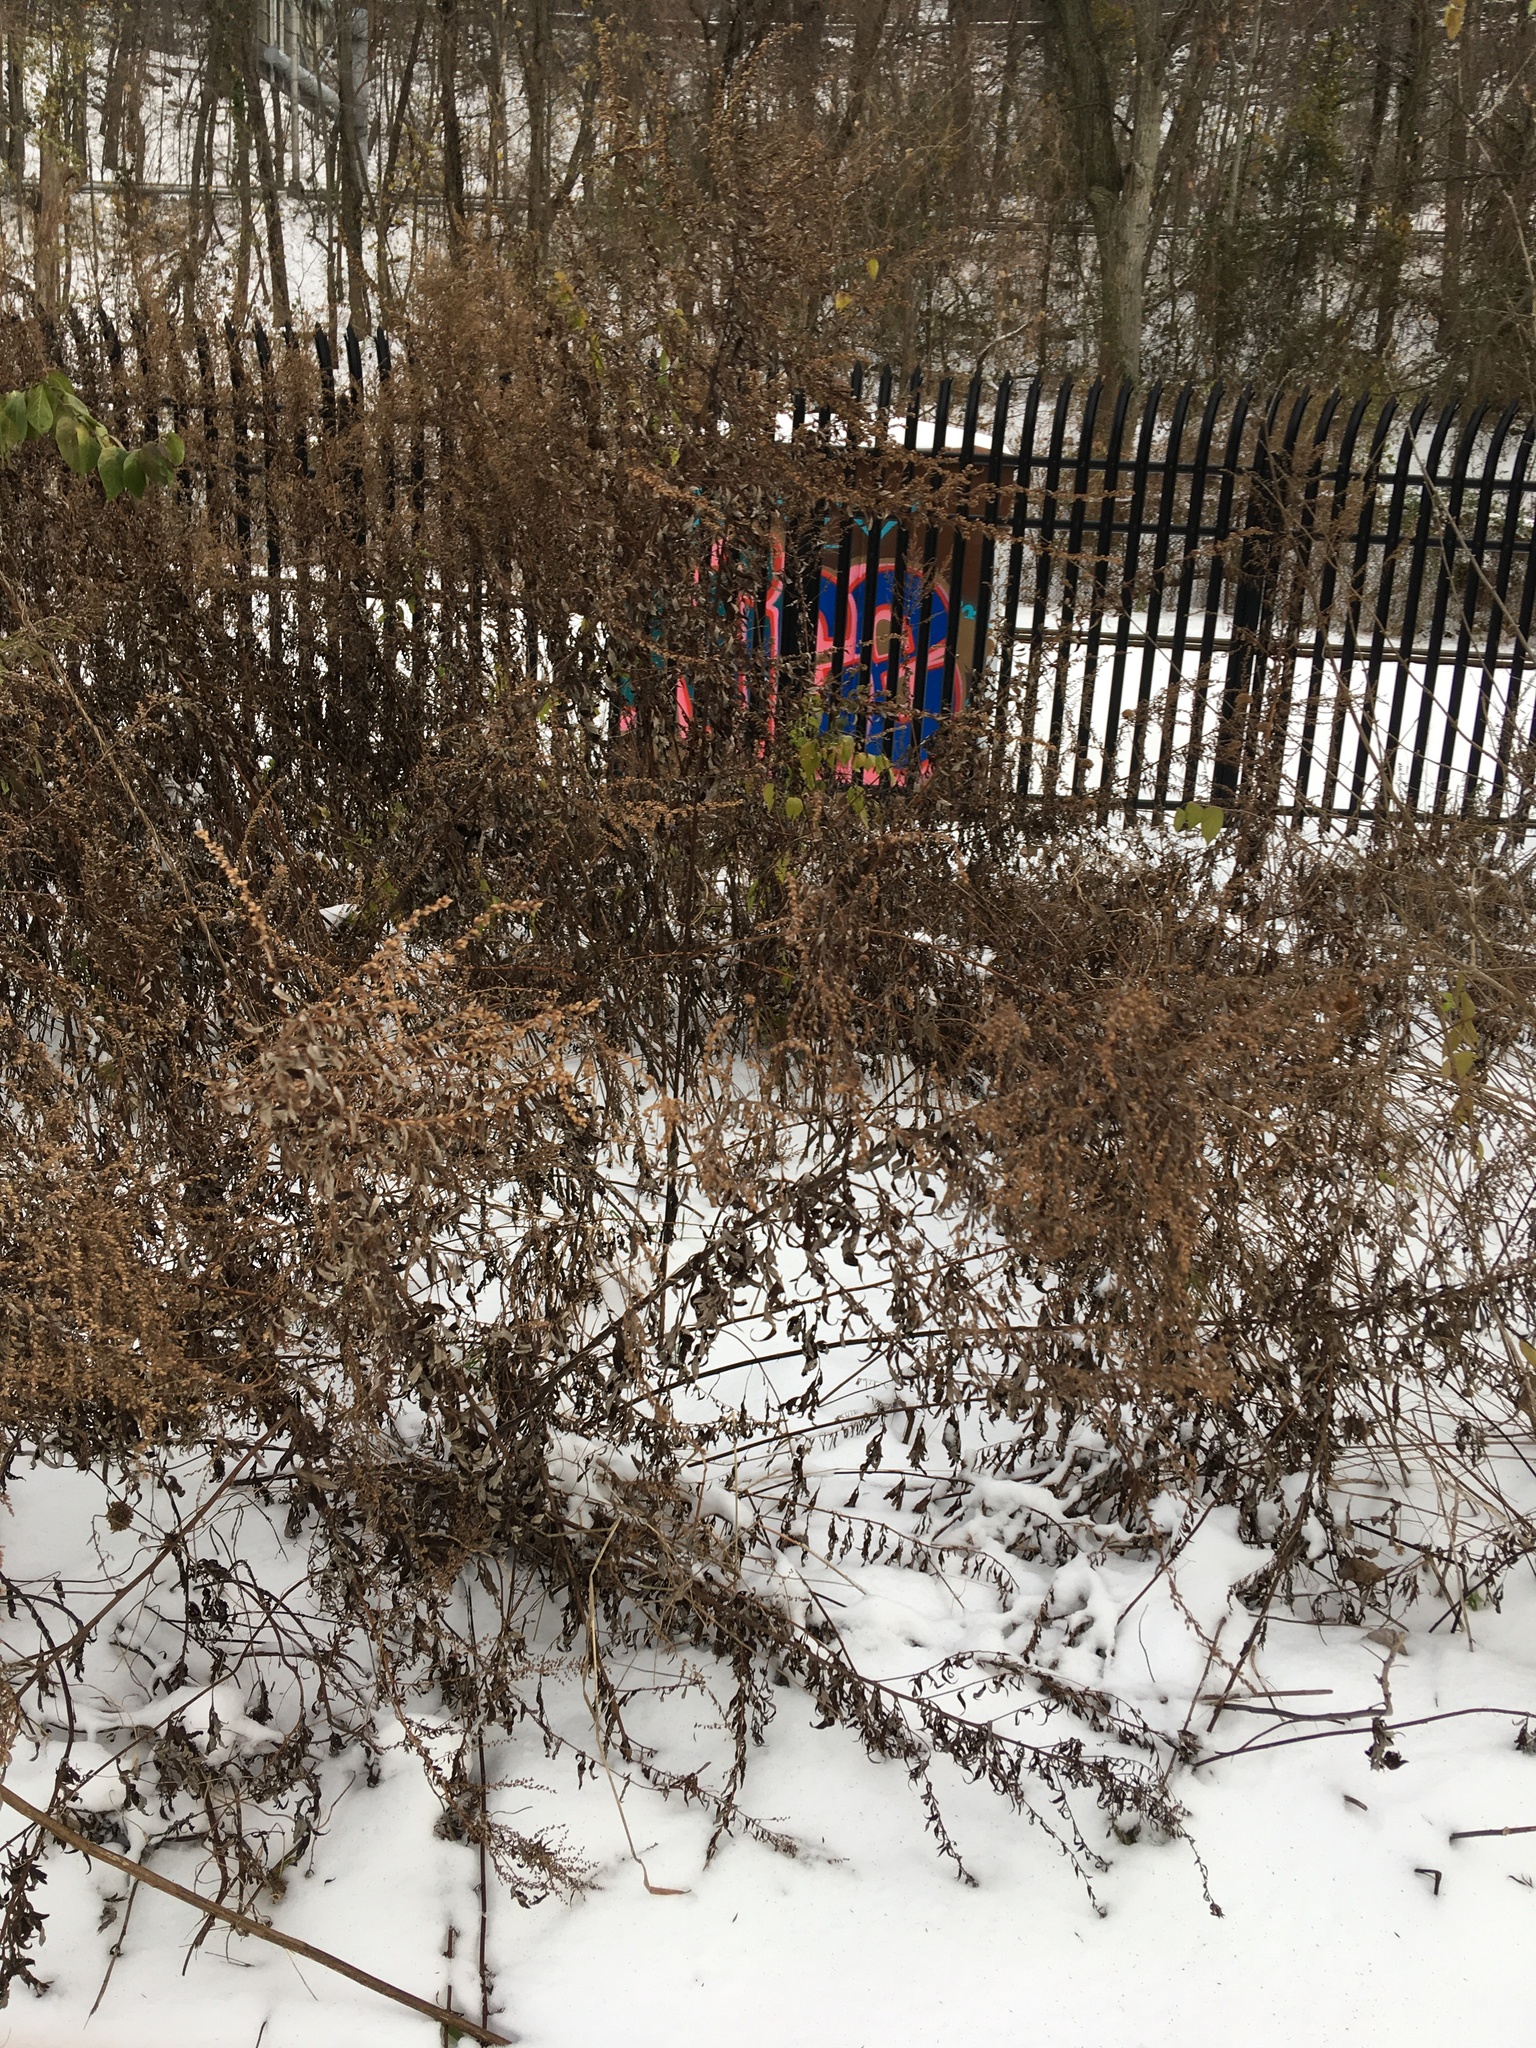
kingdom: Plantae
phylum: Tracheophyta
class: Magnoliopsida
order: Asterales
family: Asteraceae
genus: Artemisia
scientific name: Artemisia vulgaris
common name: Mugwort
